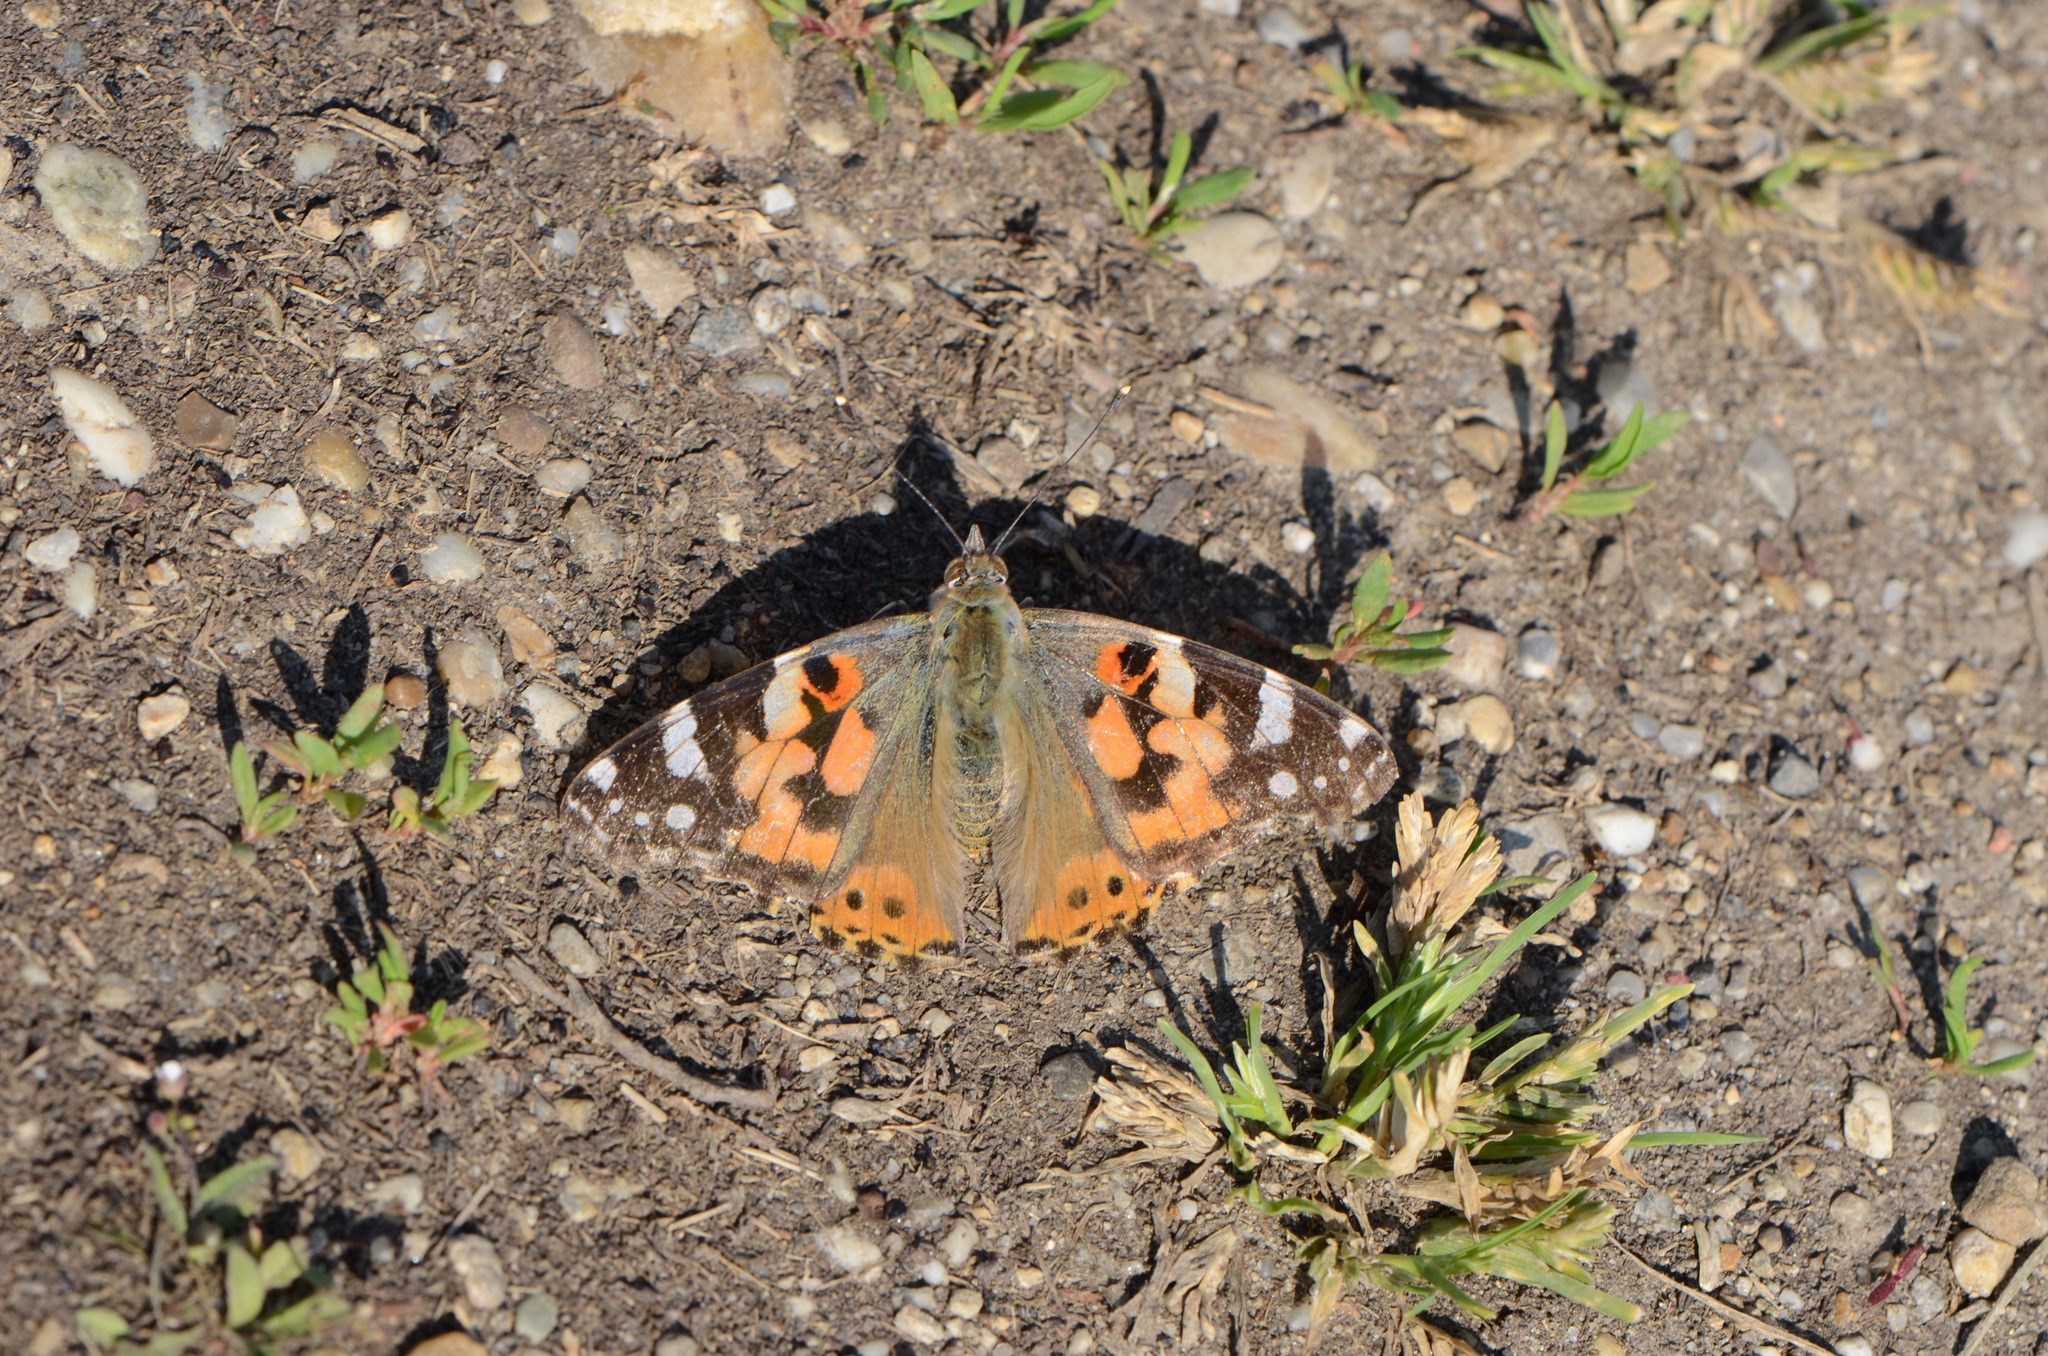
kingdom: Animalia
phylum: Arthropoda
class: Insecta
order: Lepidoptera
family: Nymphalidae
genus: Vanessa
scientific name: Vanessa cardui
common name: Painted lady
